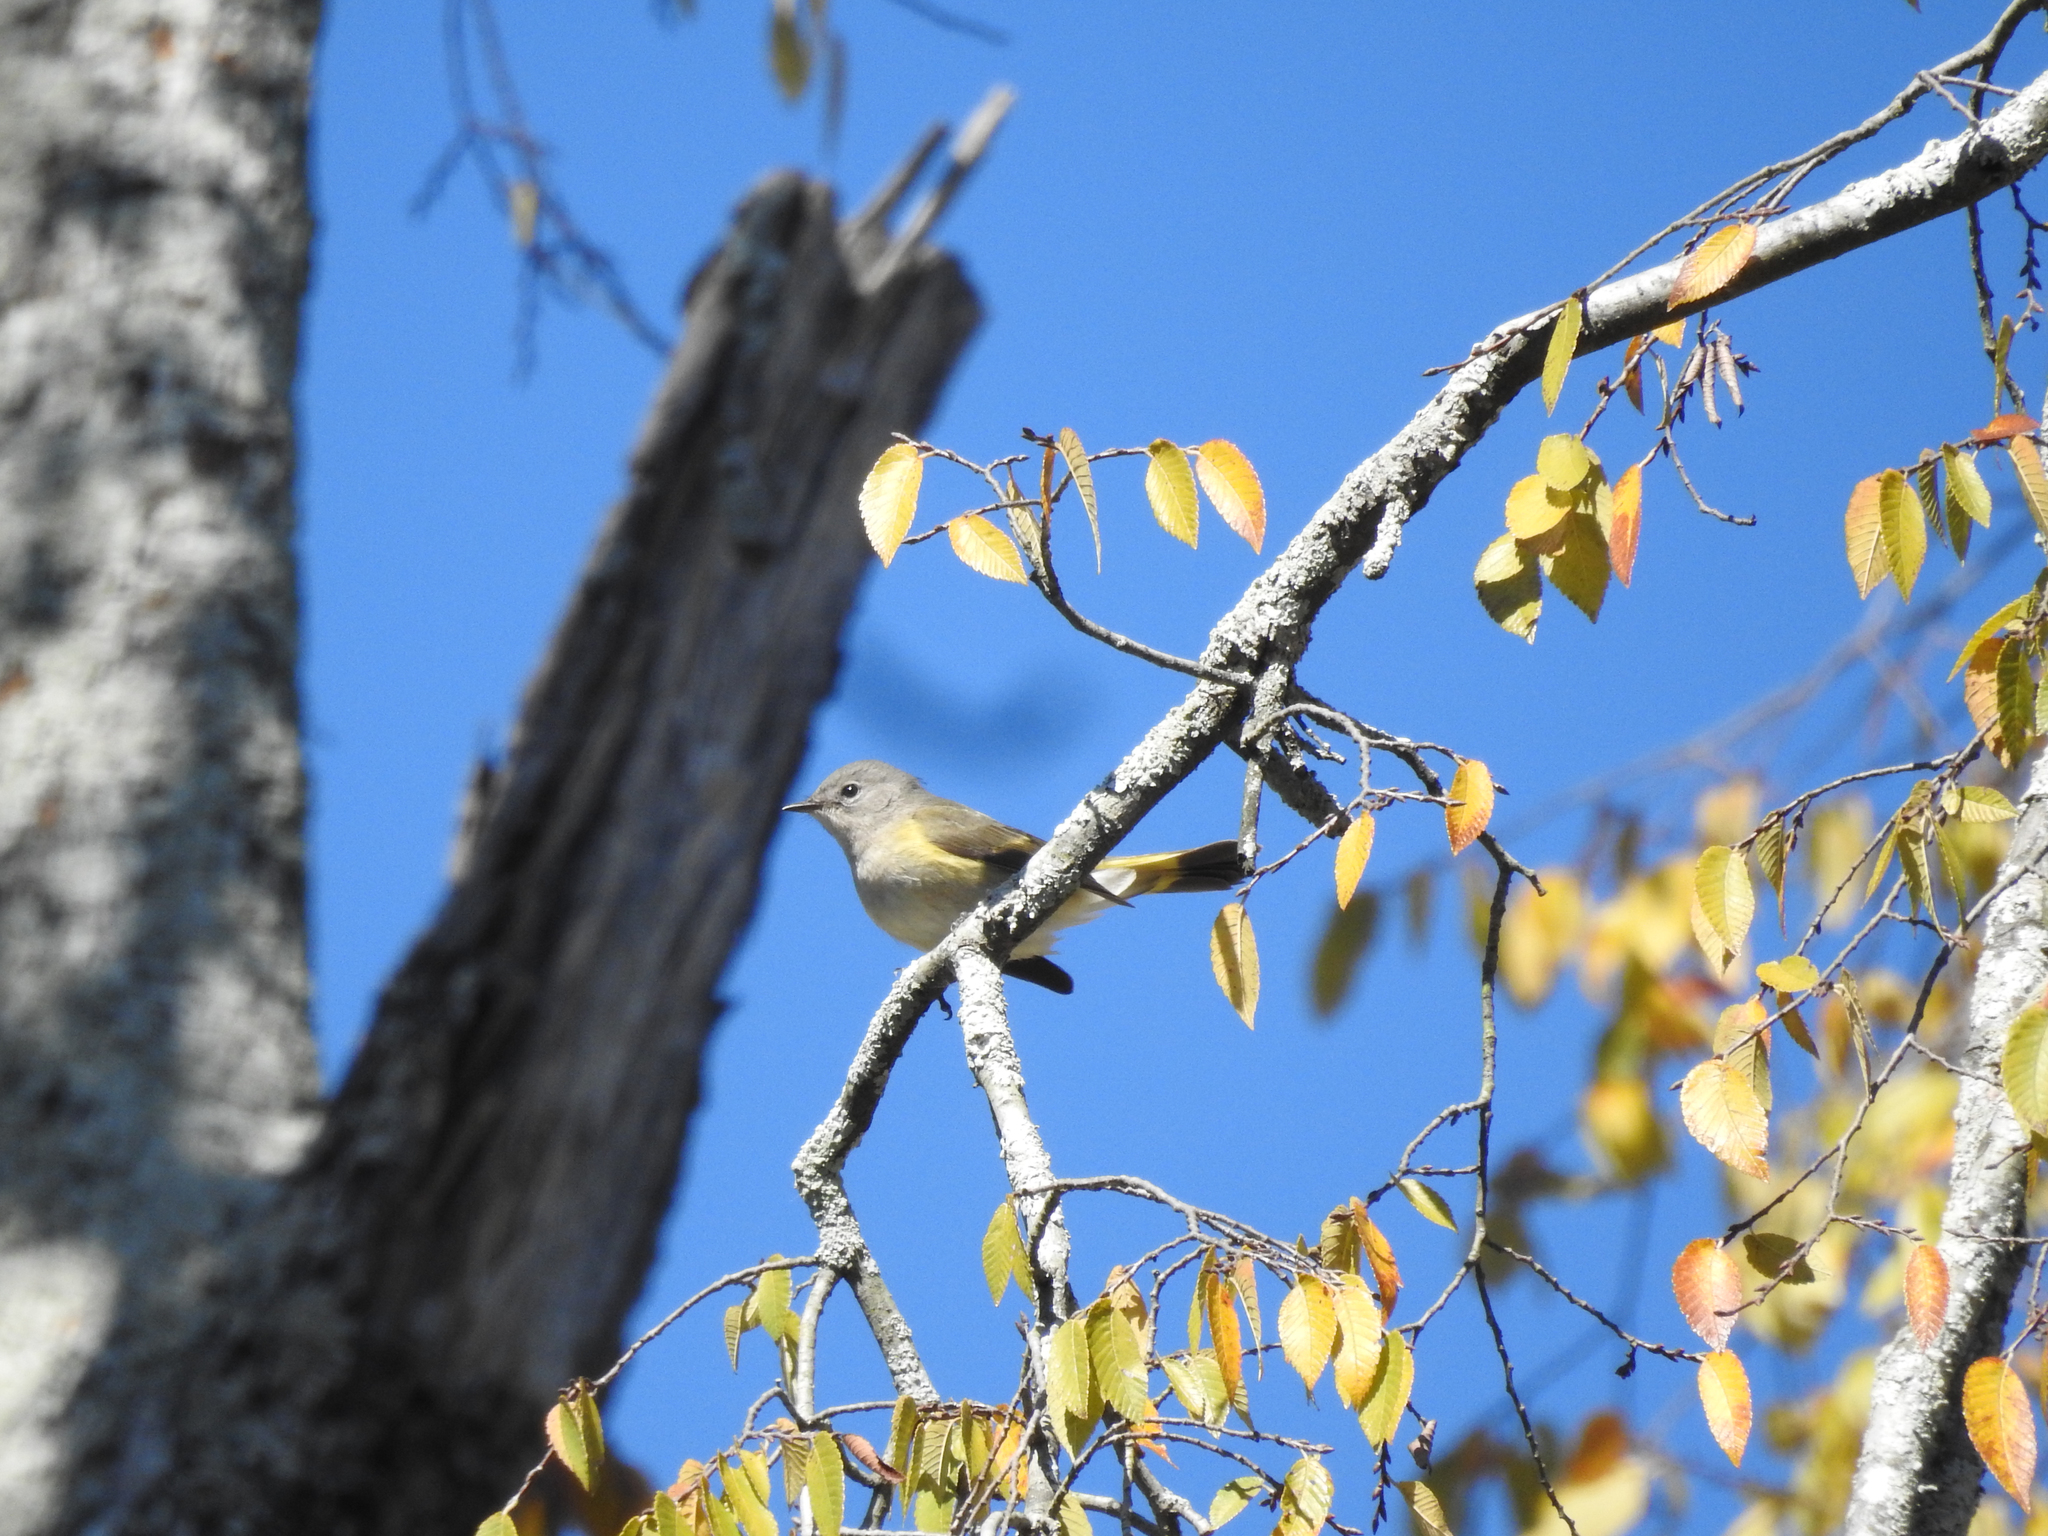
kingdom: Animalia
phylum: Chordata
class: Aves
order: Passeriformes
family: Parulidae
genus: Setophaga
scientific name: Setophaga ruticilla
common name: American redstart
